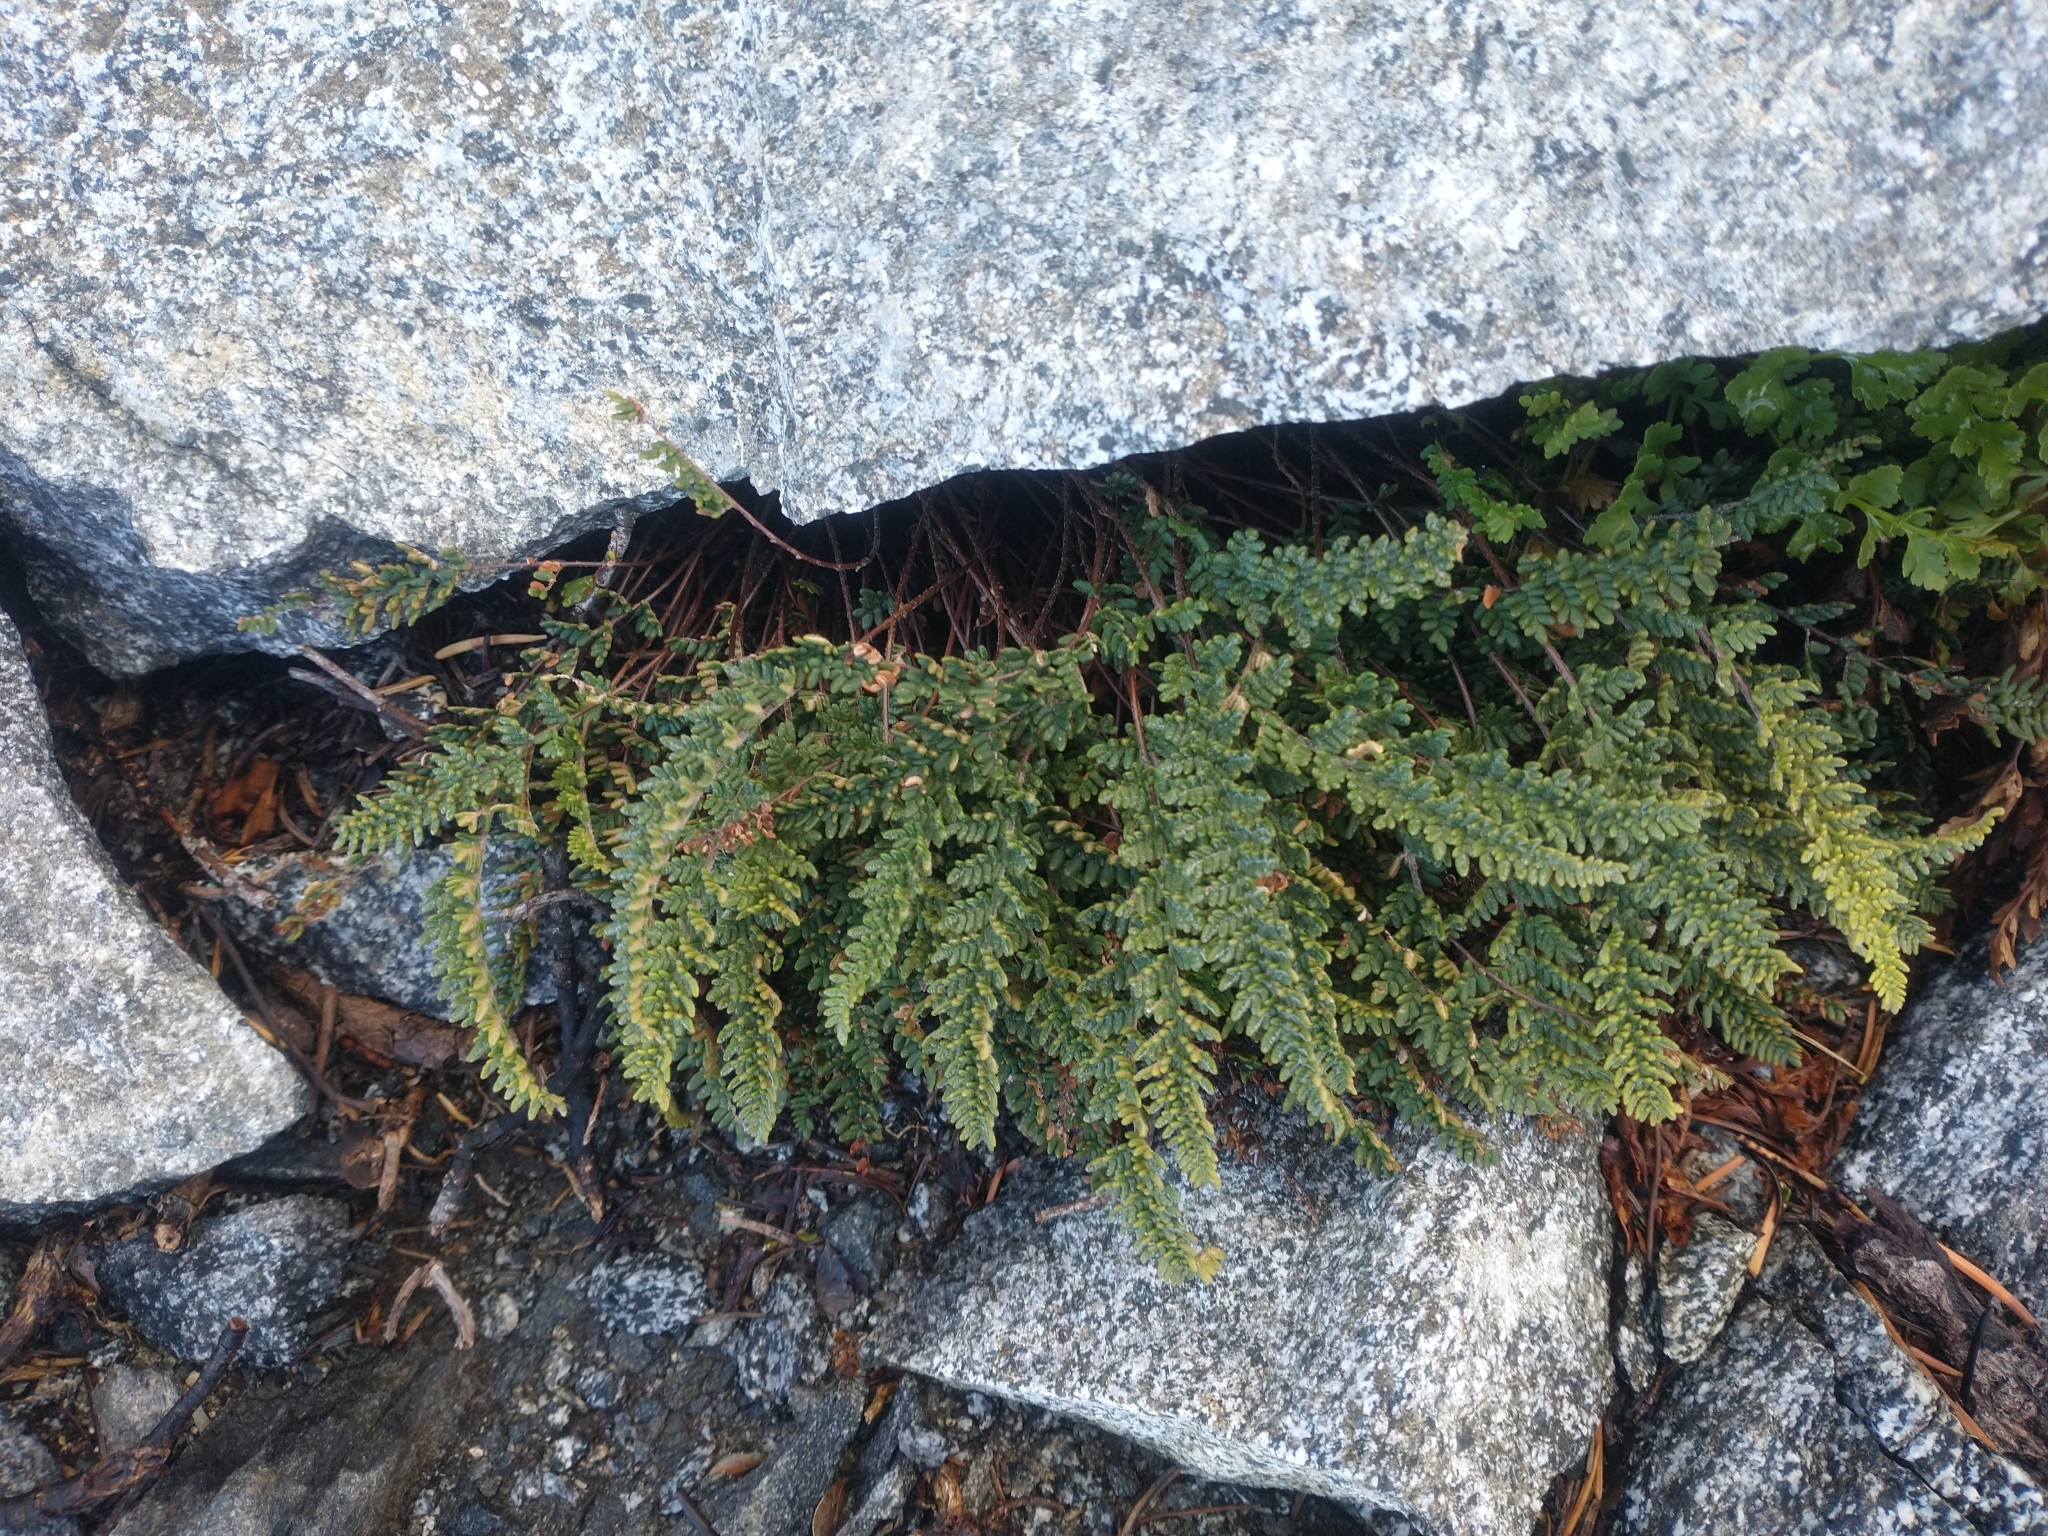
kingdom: Plantae
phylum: Tracheophyta
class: Polypodiopsida
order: Polypodiales
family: Pteridaceae
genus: Myriopteris
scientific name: Myriopteris gracillima
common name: Lace fern
